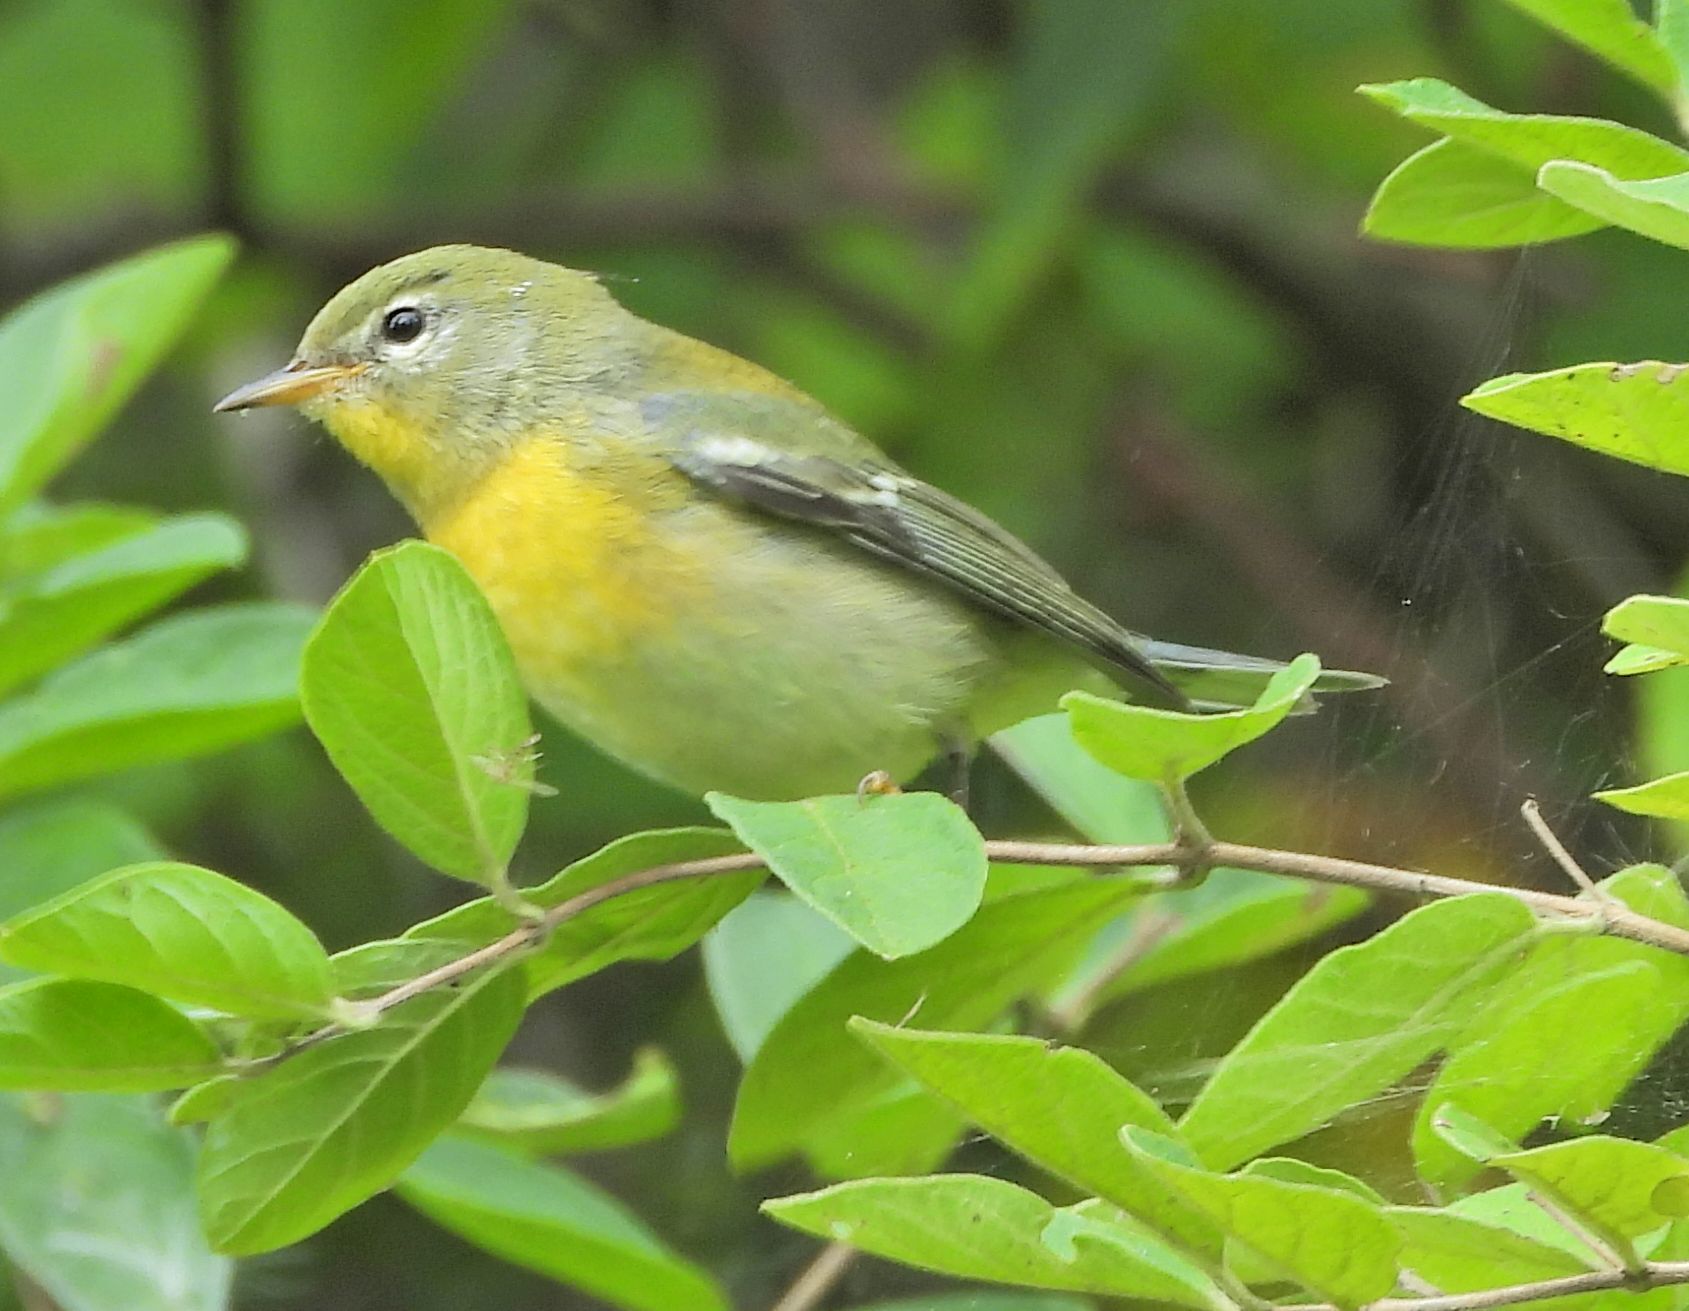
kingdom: Animalia
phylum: Chordata
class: Aves
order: Passeriformes
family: Parulidae
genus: Setophaga
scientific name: Setophaga americana
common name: Northern parula
